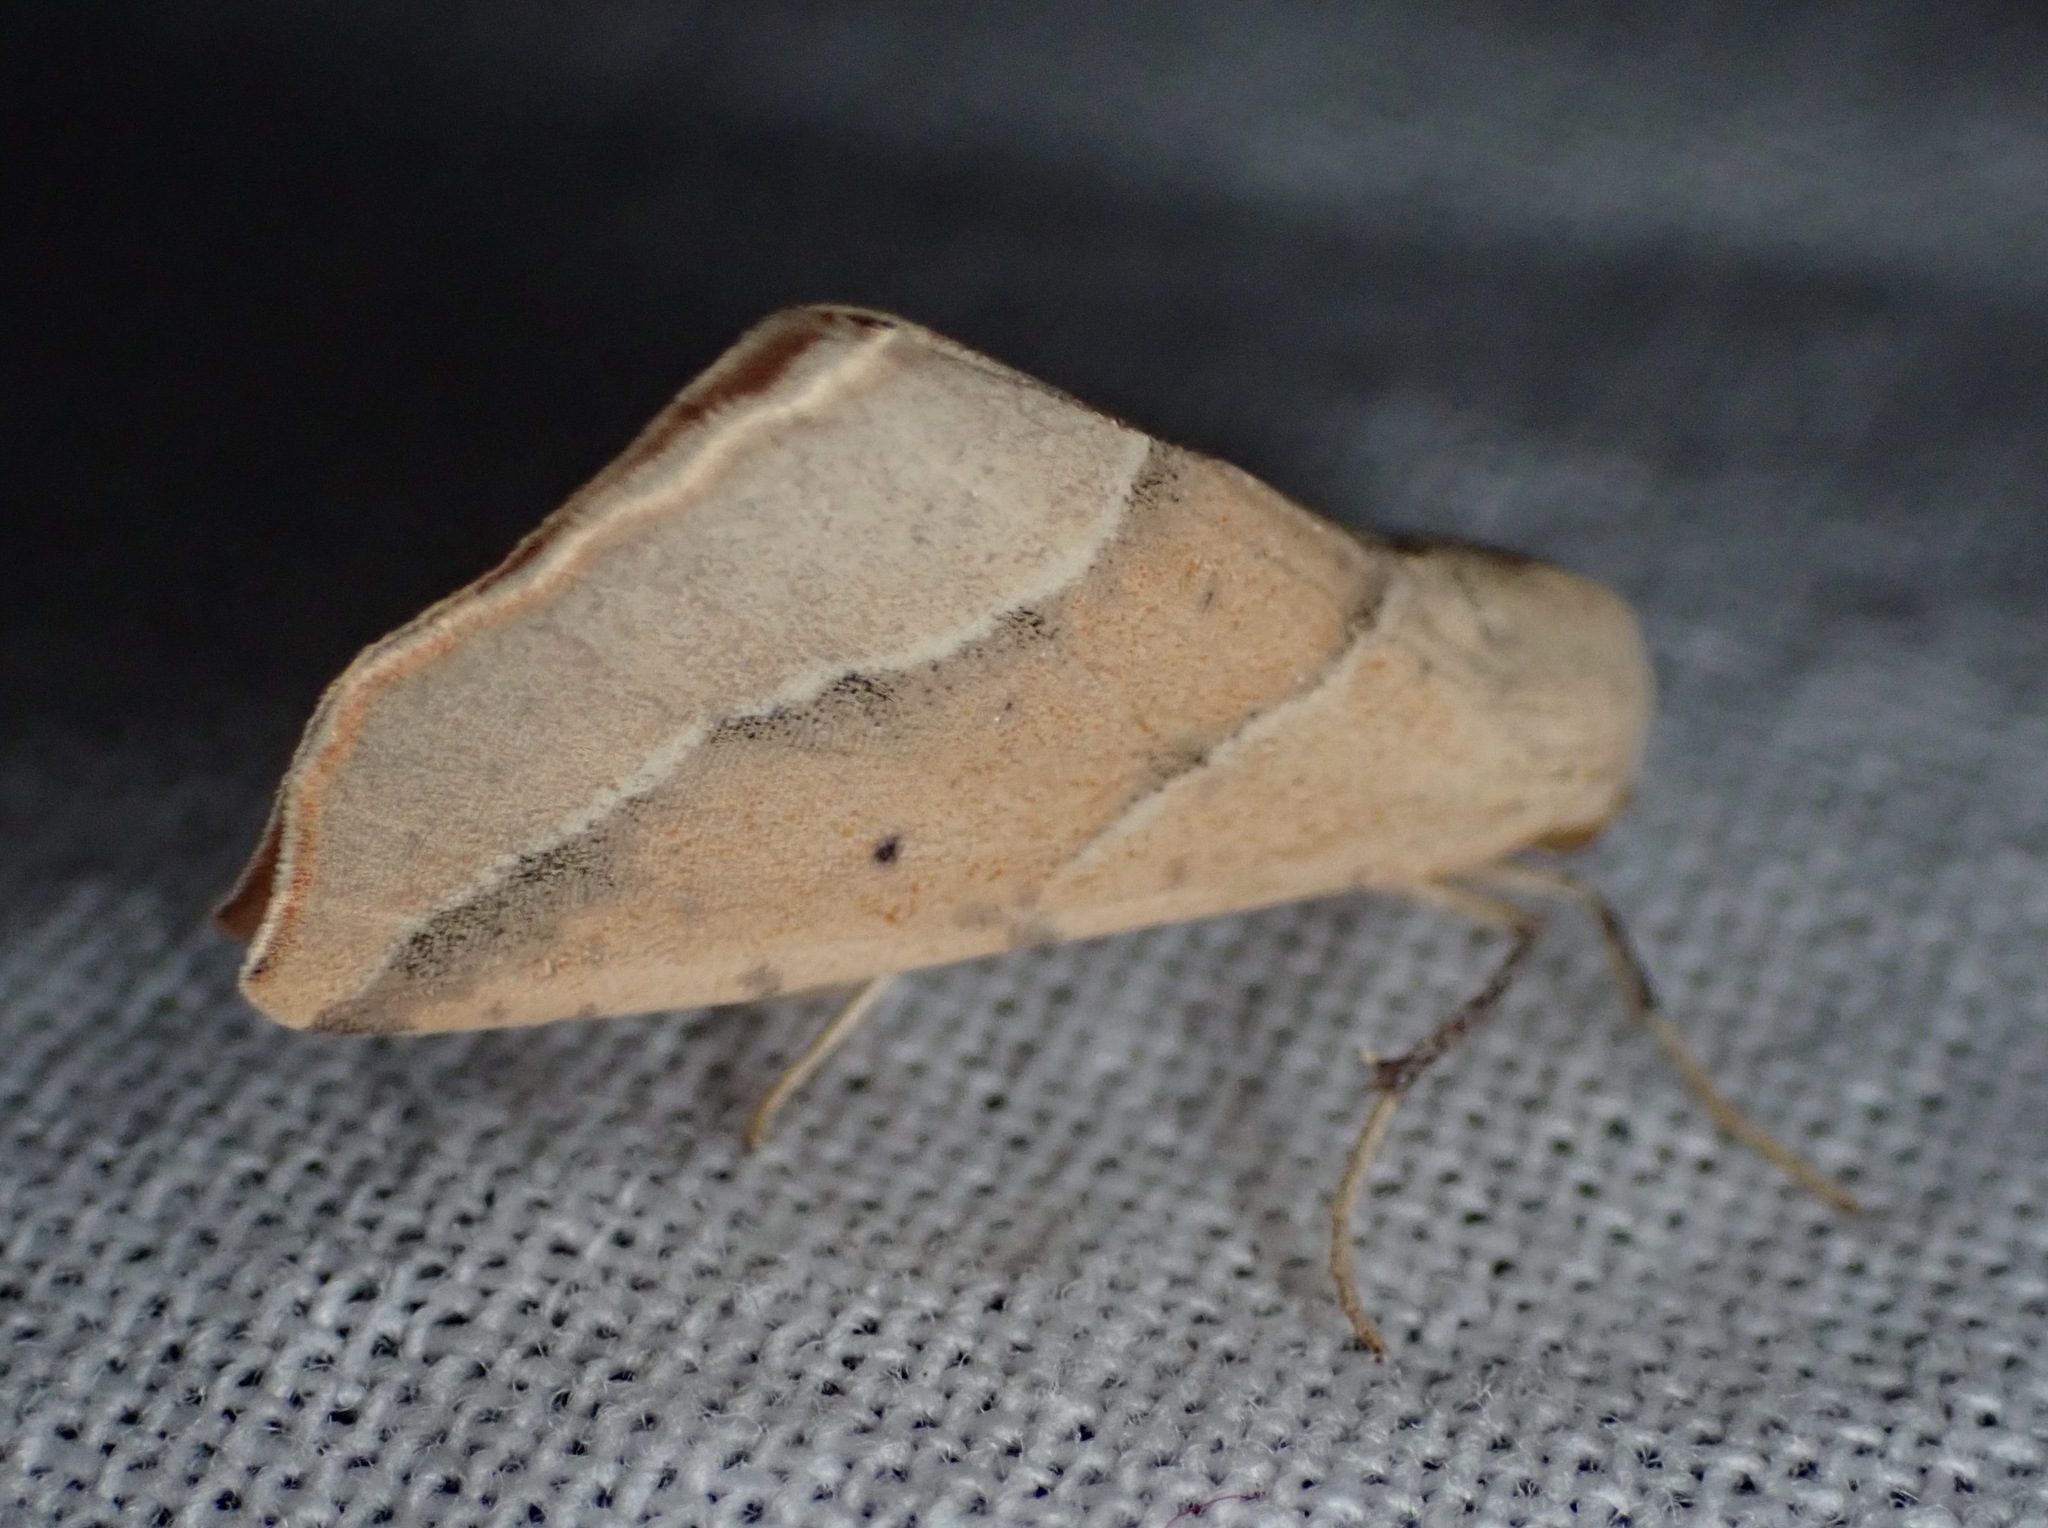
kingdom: Animalia
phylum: Arthropoda
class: Insecta
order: Lepidoptera
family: Geometridae
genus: Sicya
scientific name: Sicya morsicaria
